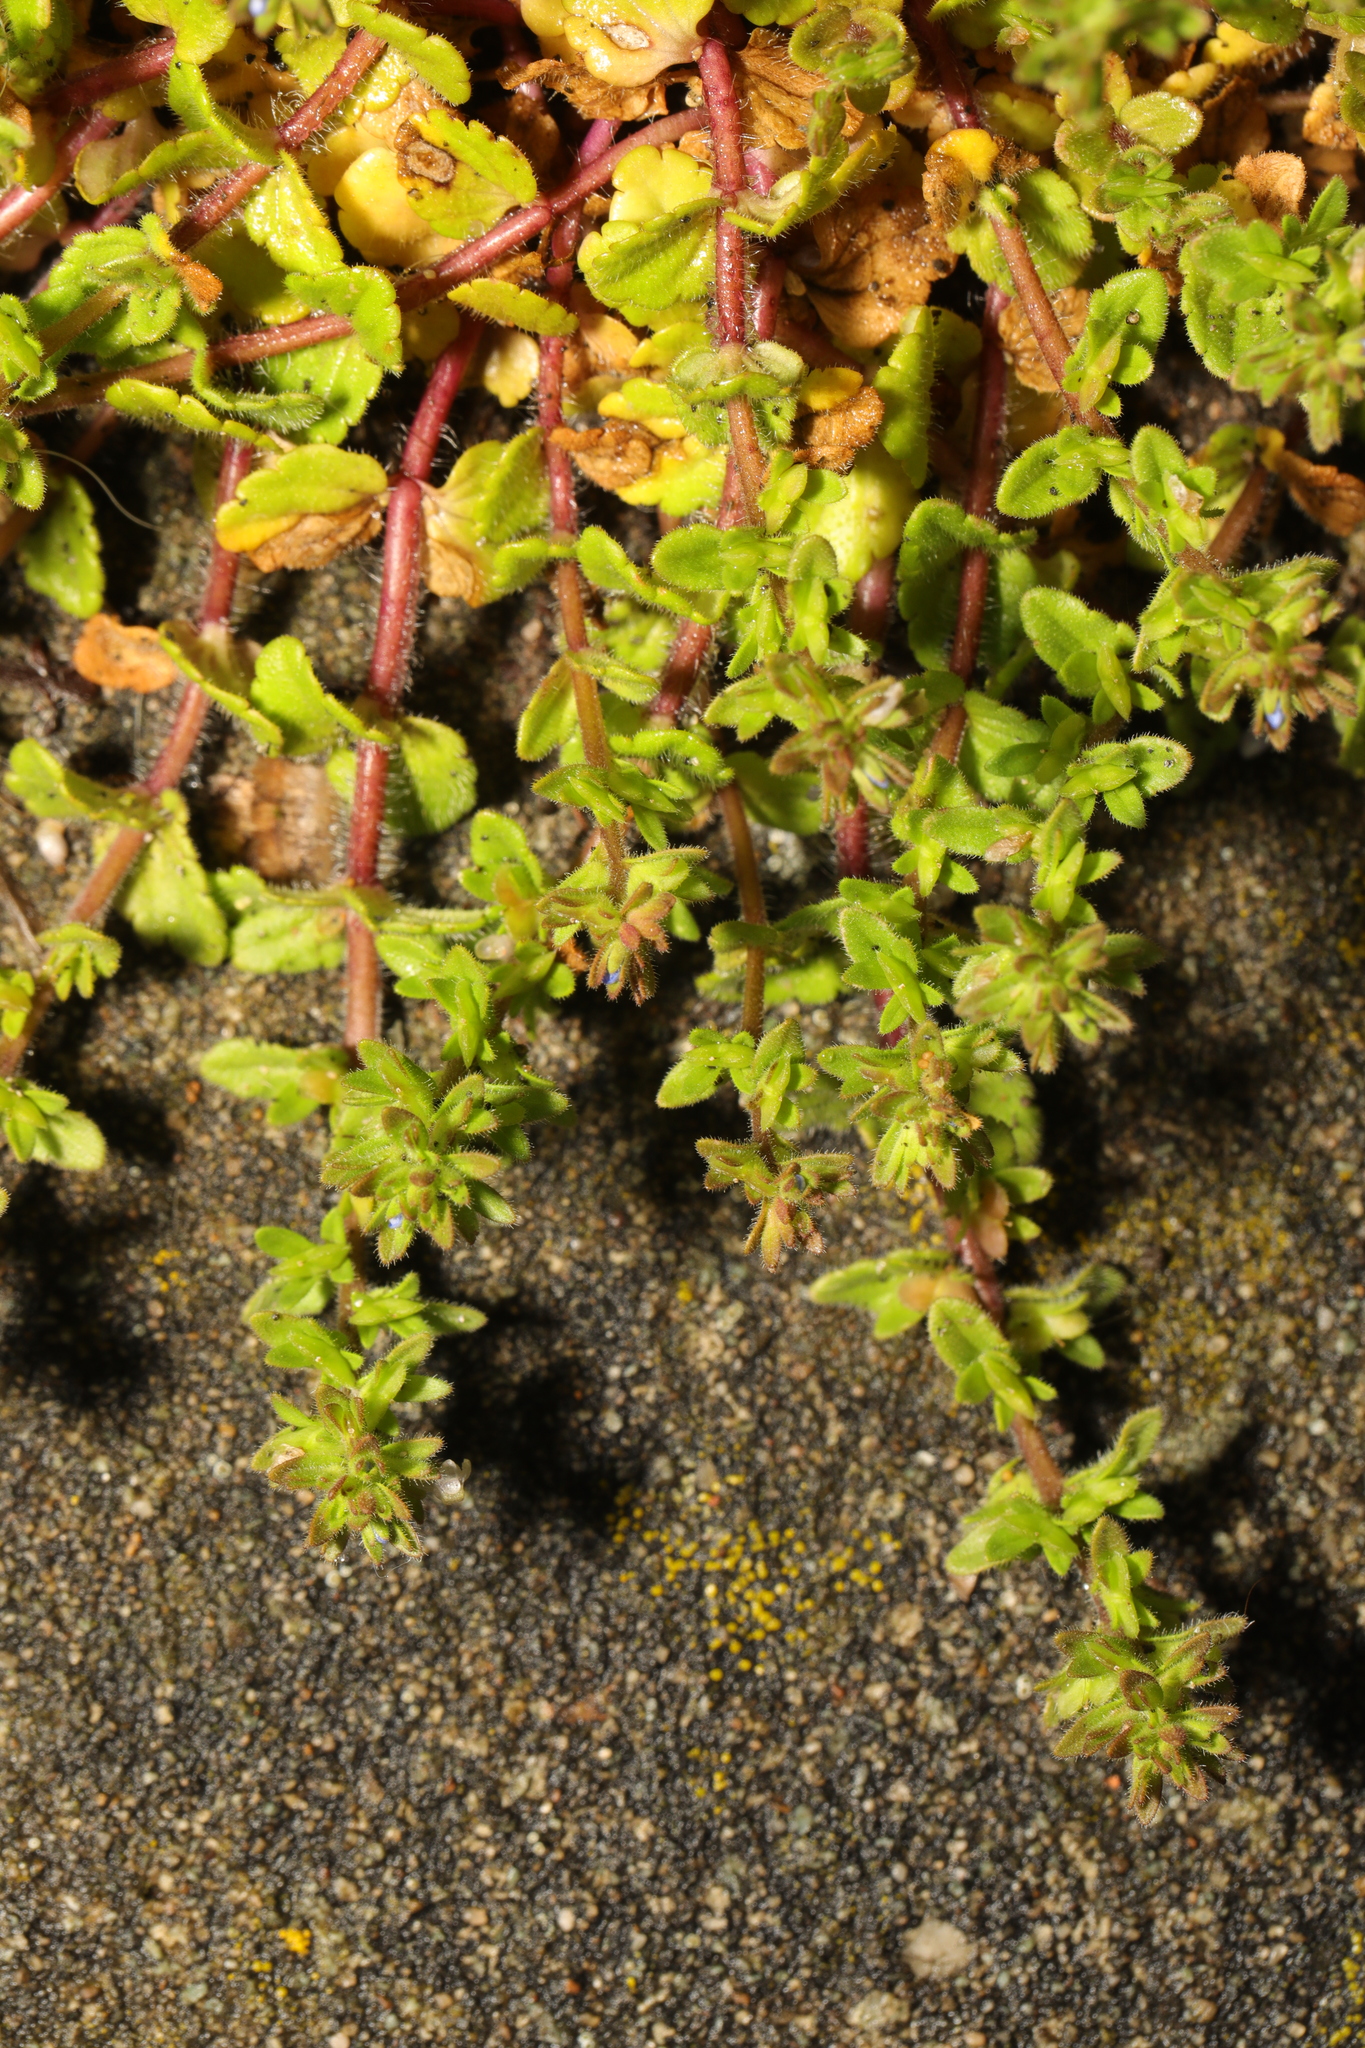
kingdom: Plantae
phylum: Tracheophyta
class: Magnoliopsida
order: Lamiales
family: Plantaginaceae
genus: Veronica
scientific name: Veronica arvensis
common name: Corn speedwell
